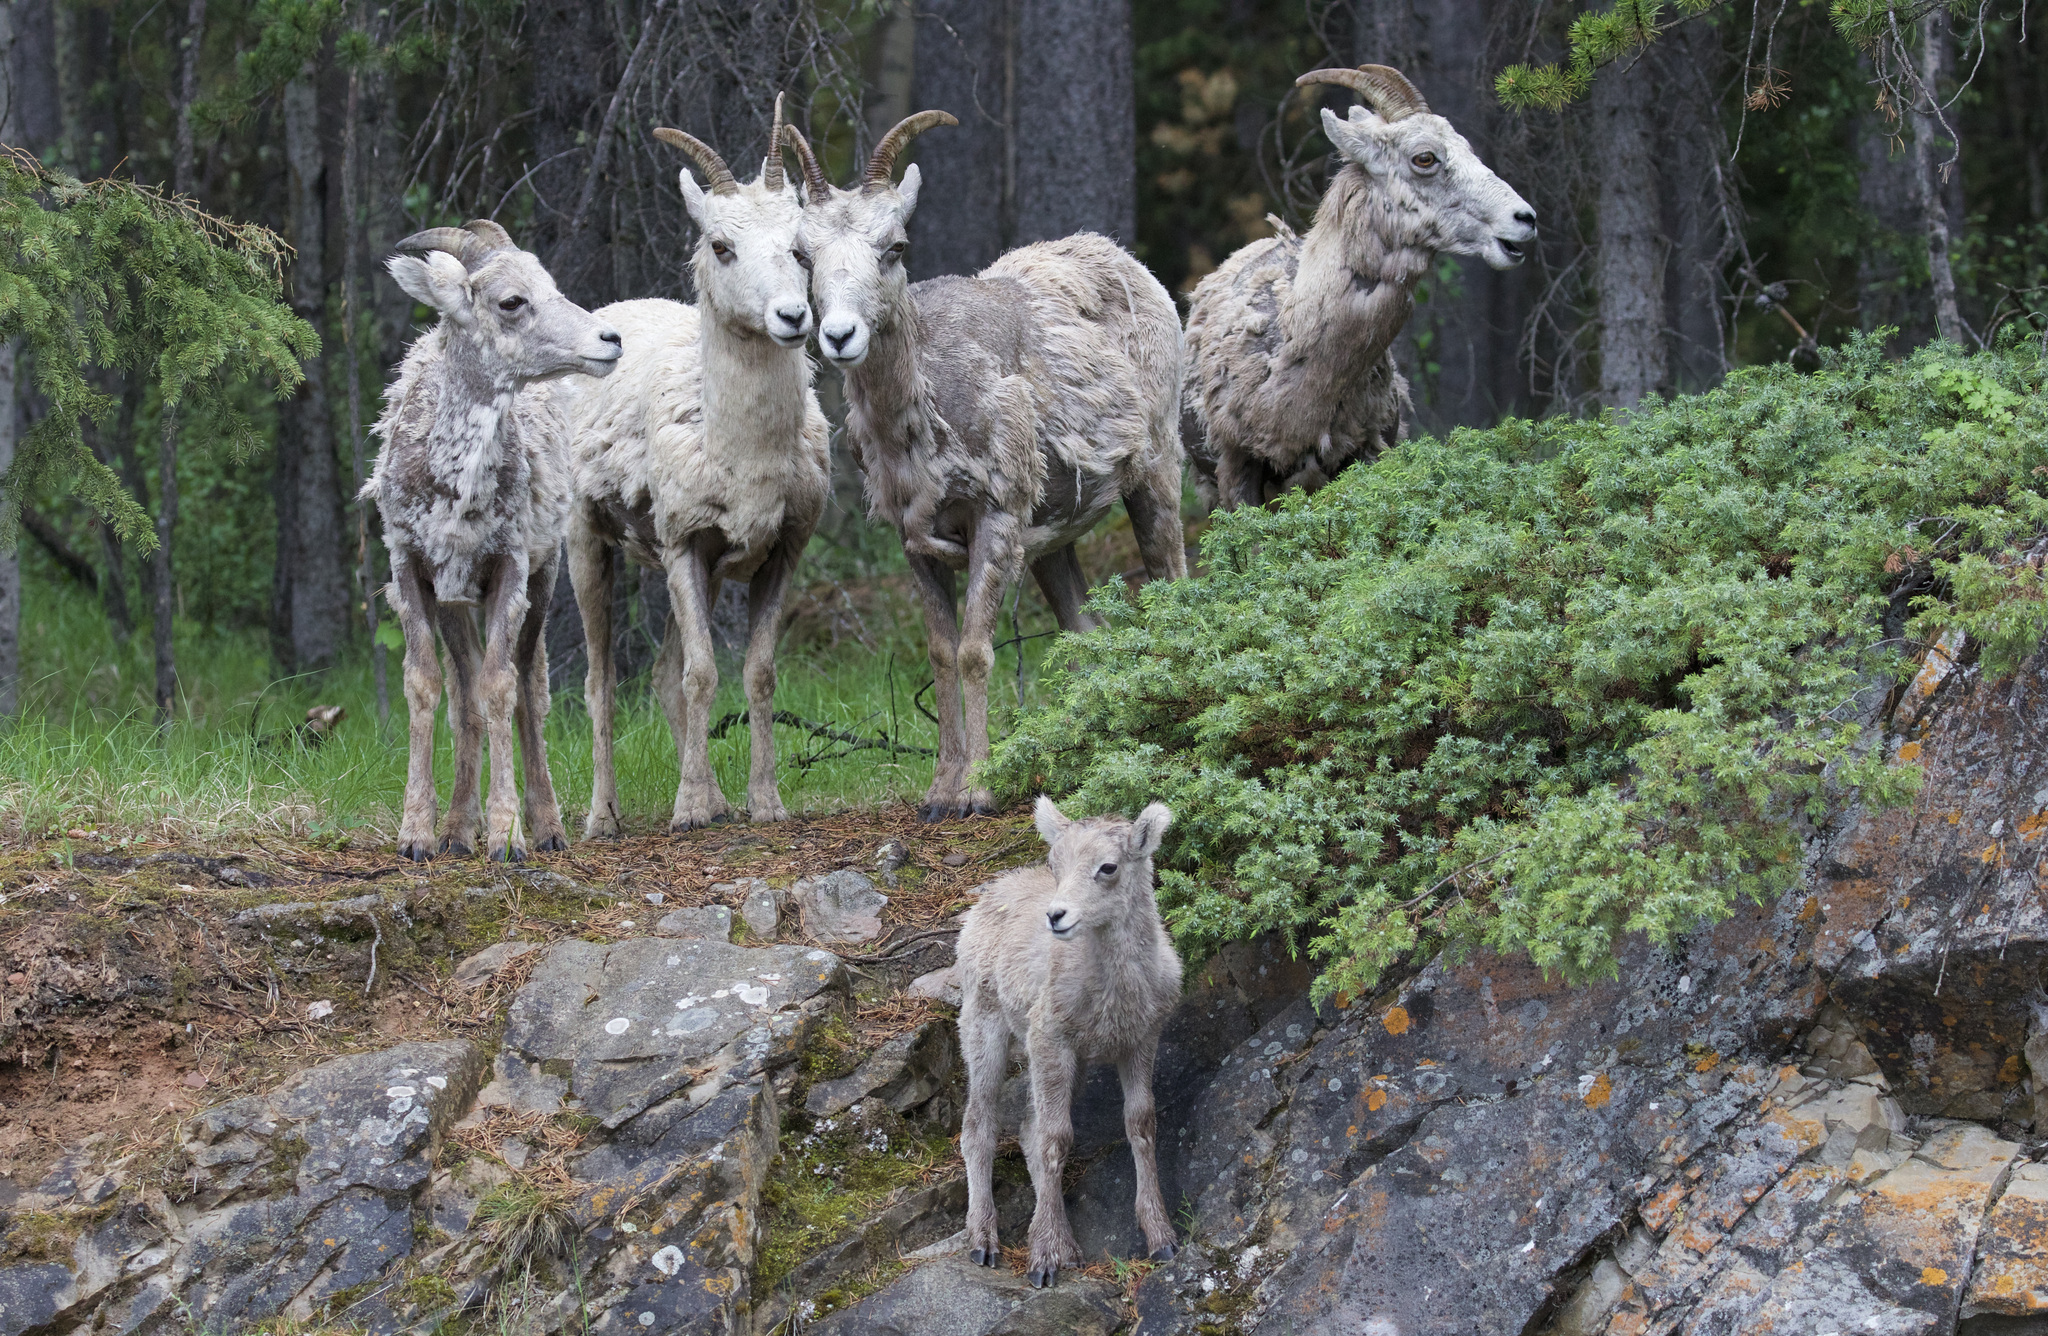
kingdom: Animalia
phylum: Chordata
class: Mammalia
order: Artiodactyla
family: Bovidae
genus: Ovis
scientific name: Ovis canadensis
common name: Bighorn sheep
